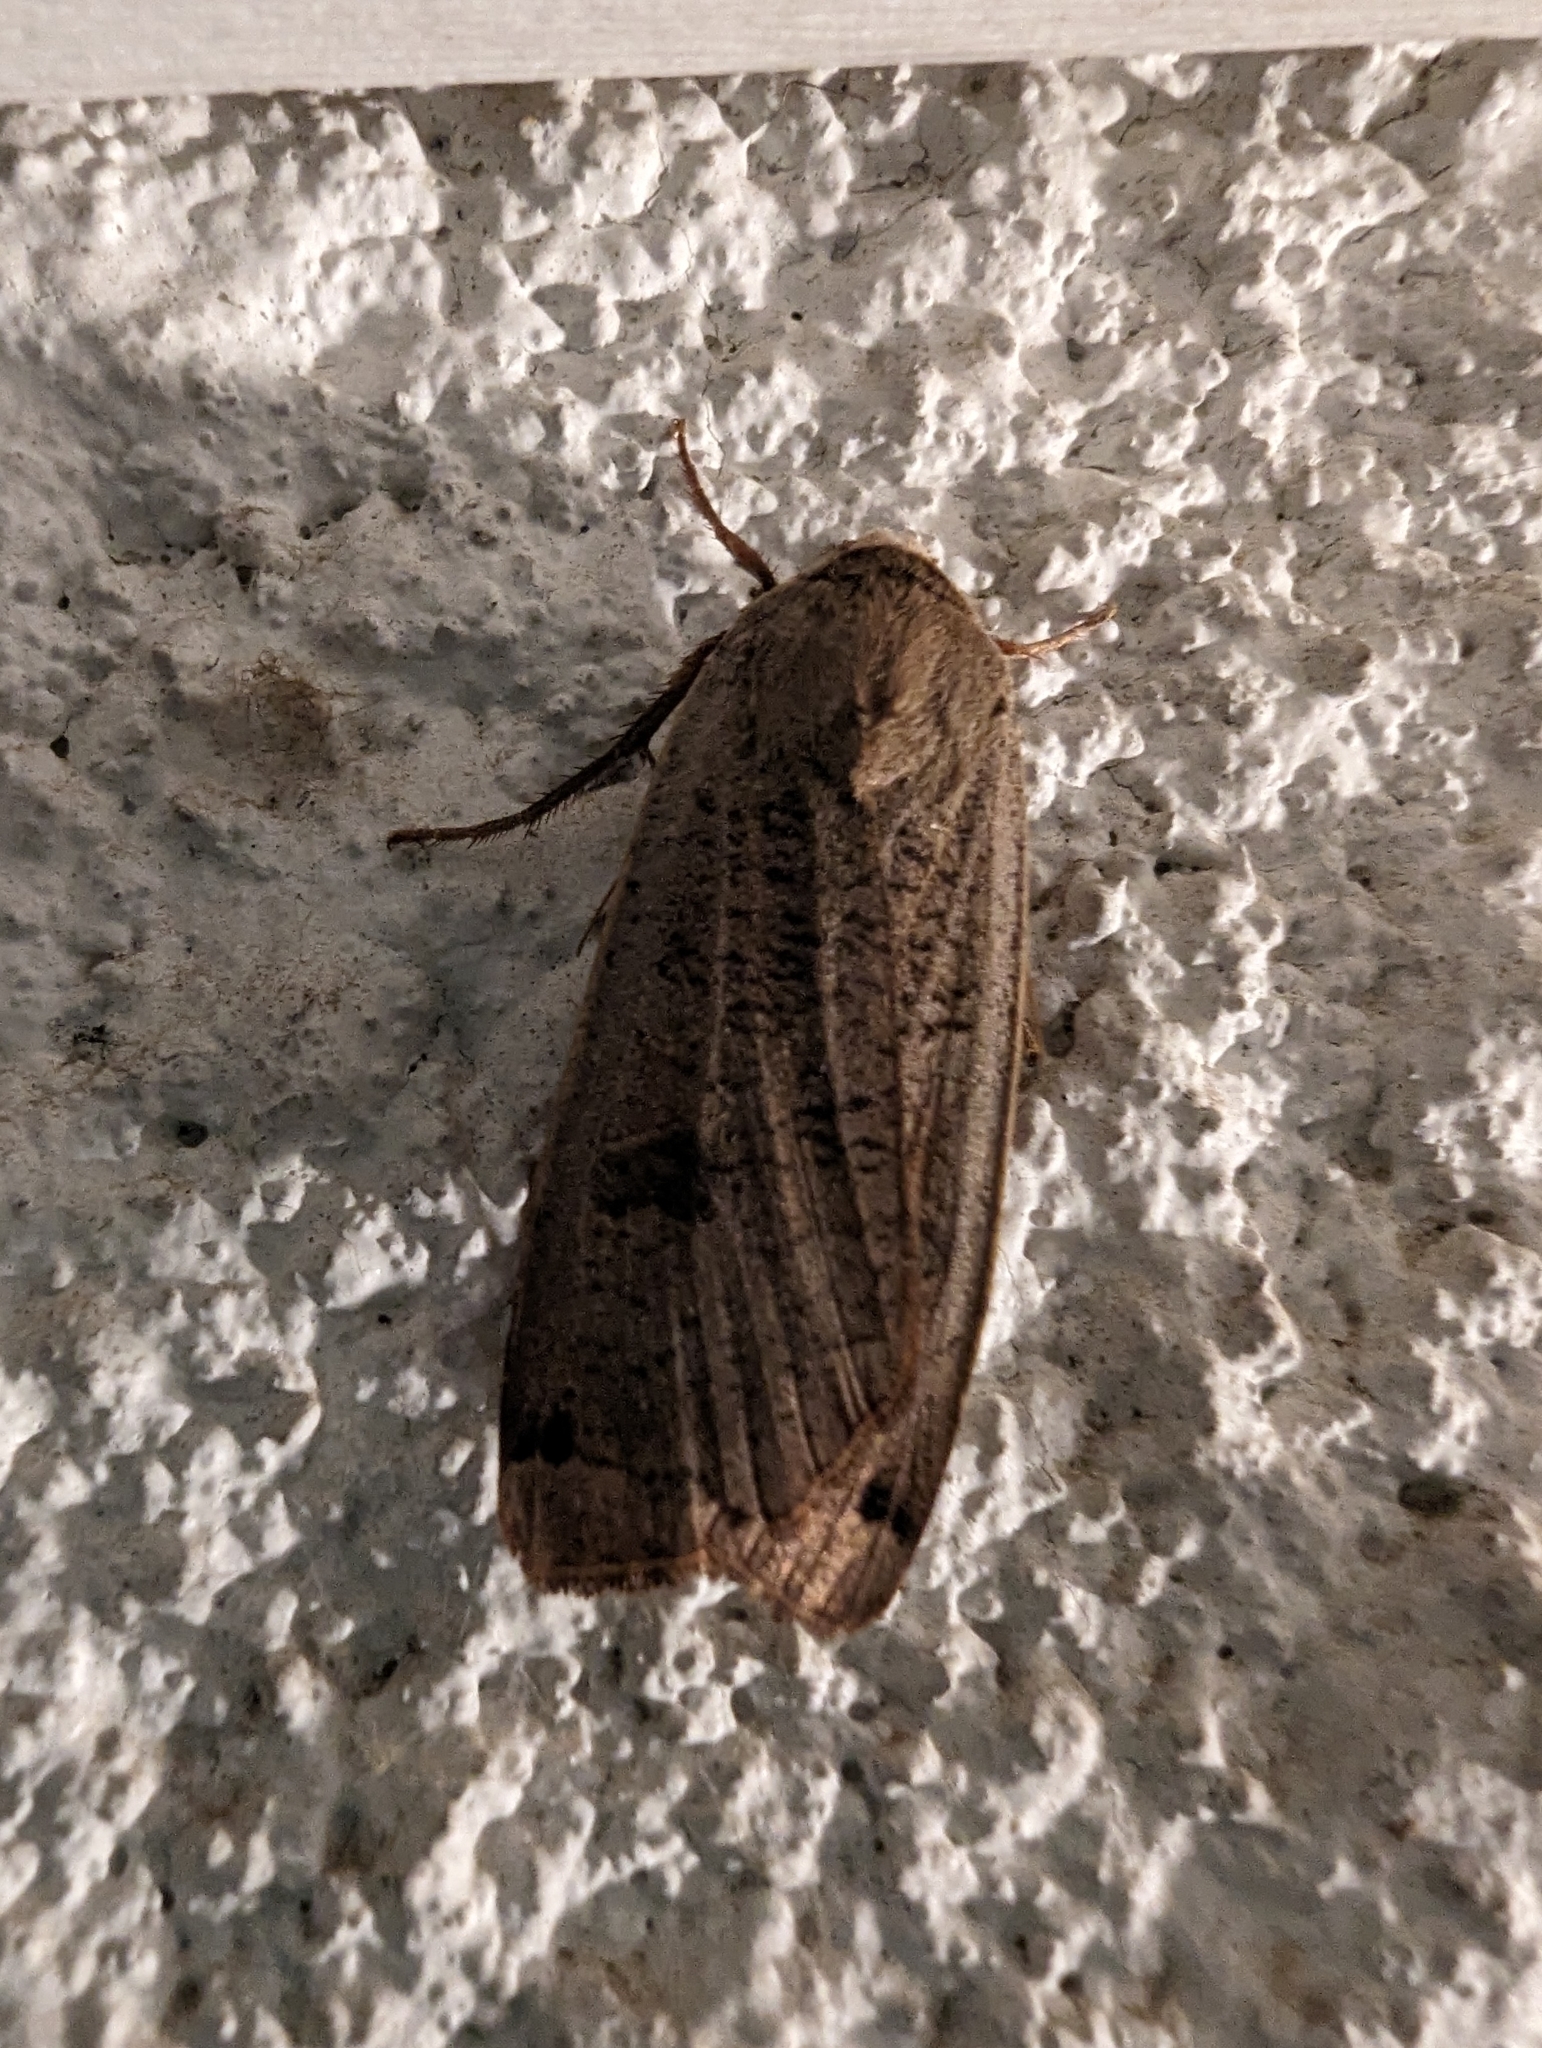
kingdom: Animalia
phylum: Arthropoda
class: Insecta
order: Lepidoptera
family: Noctuidae
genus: Noctua
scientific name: Noctua pronuba
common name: Large yellow underwing
